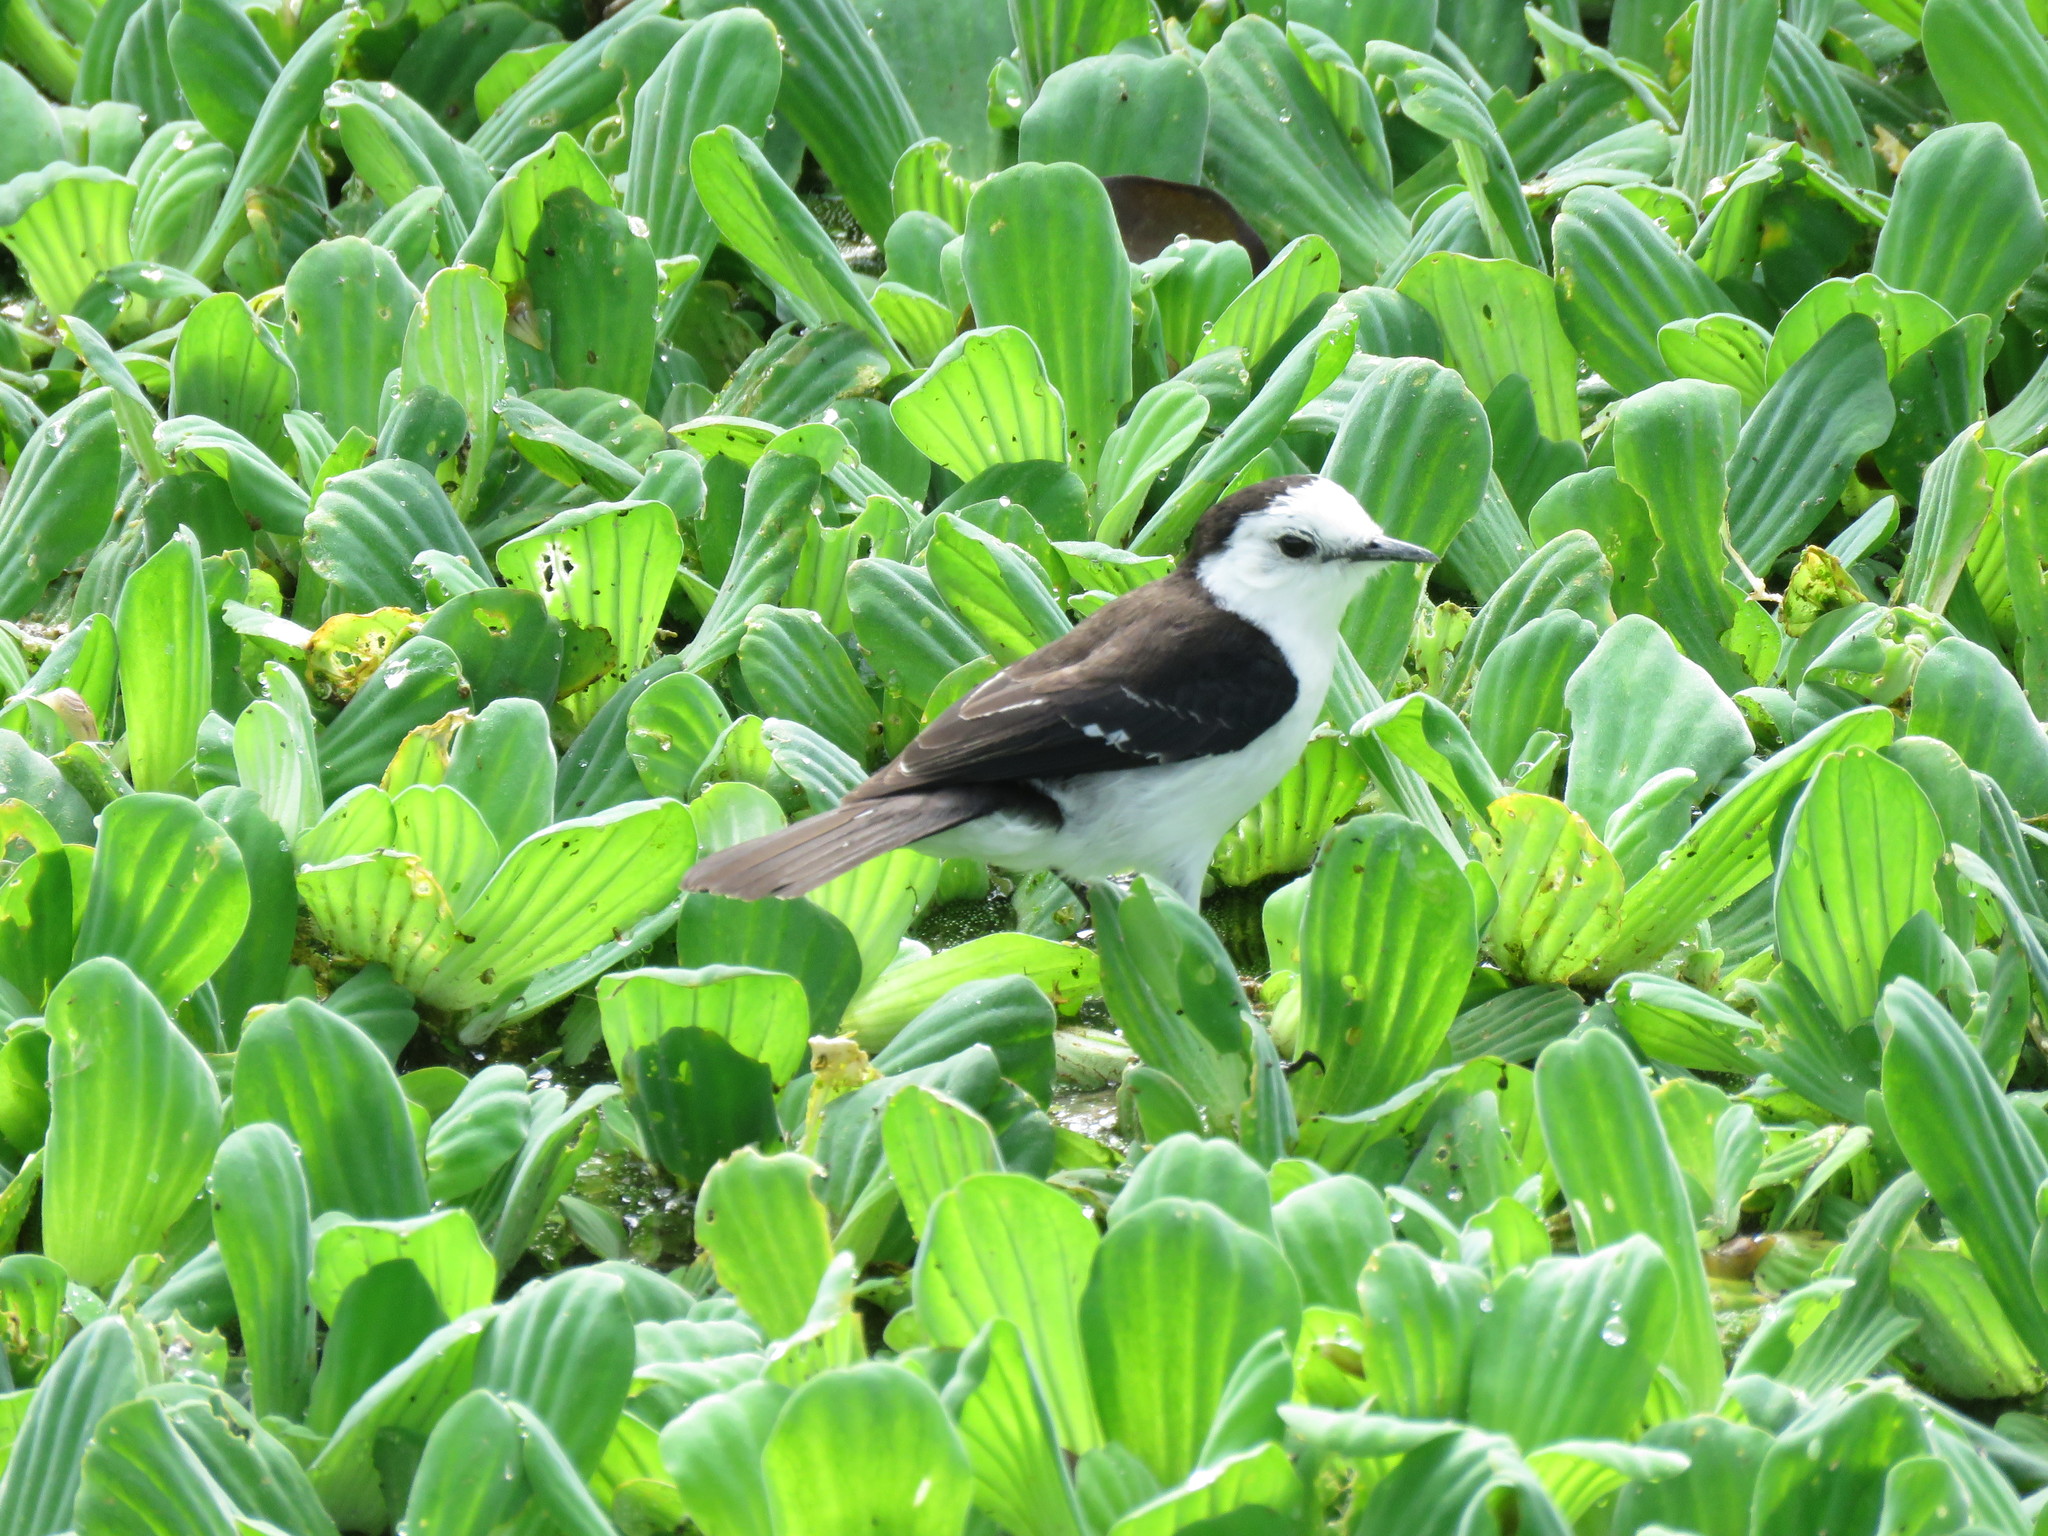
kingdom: Animalia
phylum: Chordata
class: Aves
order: Passeriformes
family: Tyrannidae
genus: Fluvicola
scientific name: Fluvicola pica
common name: Pied water-tyrant
